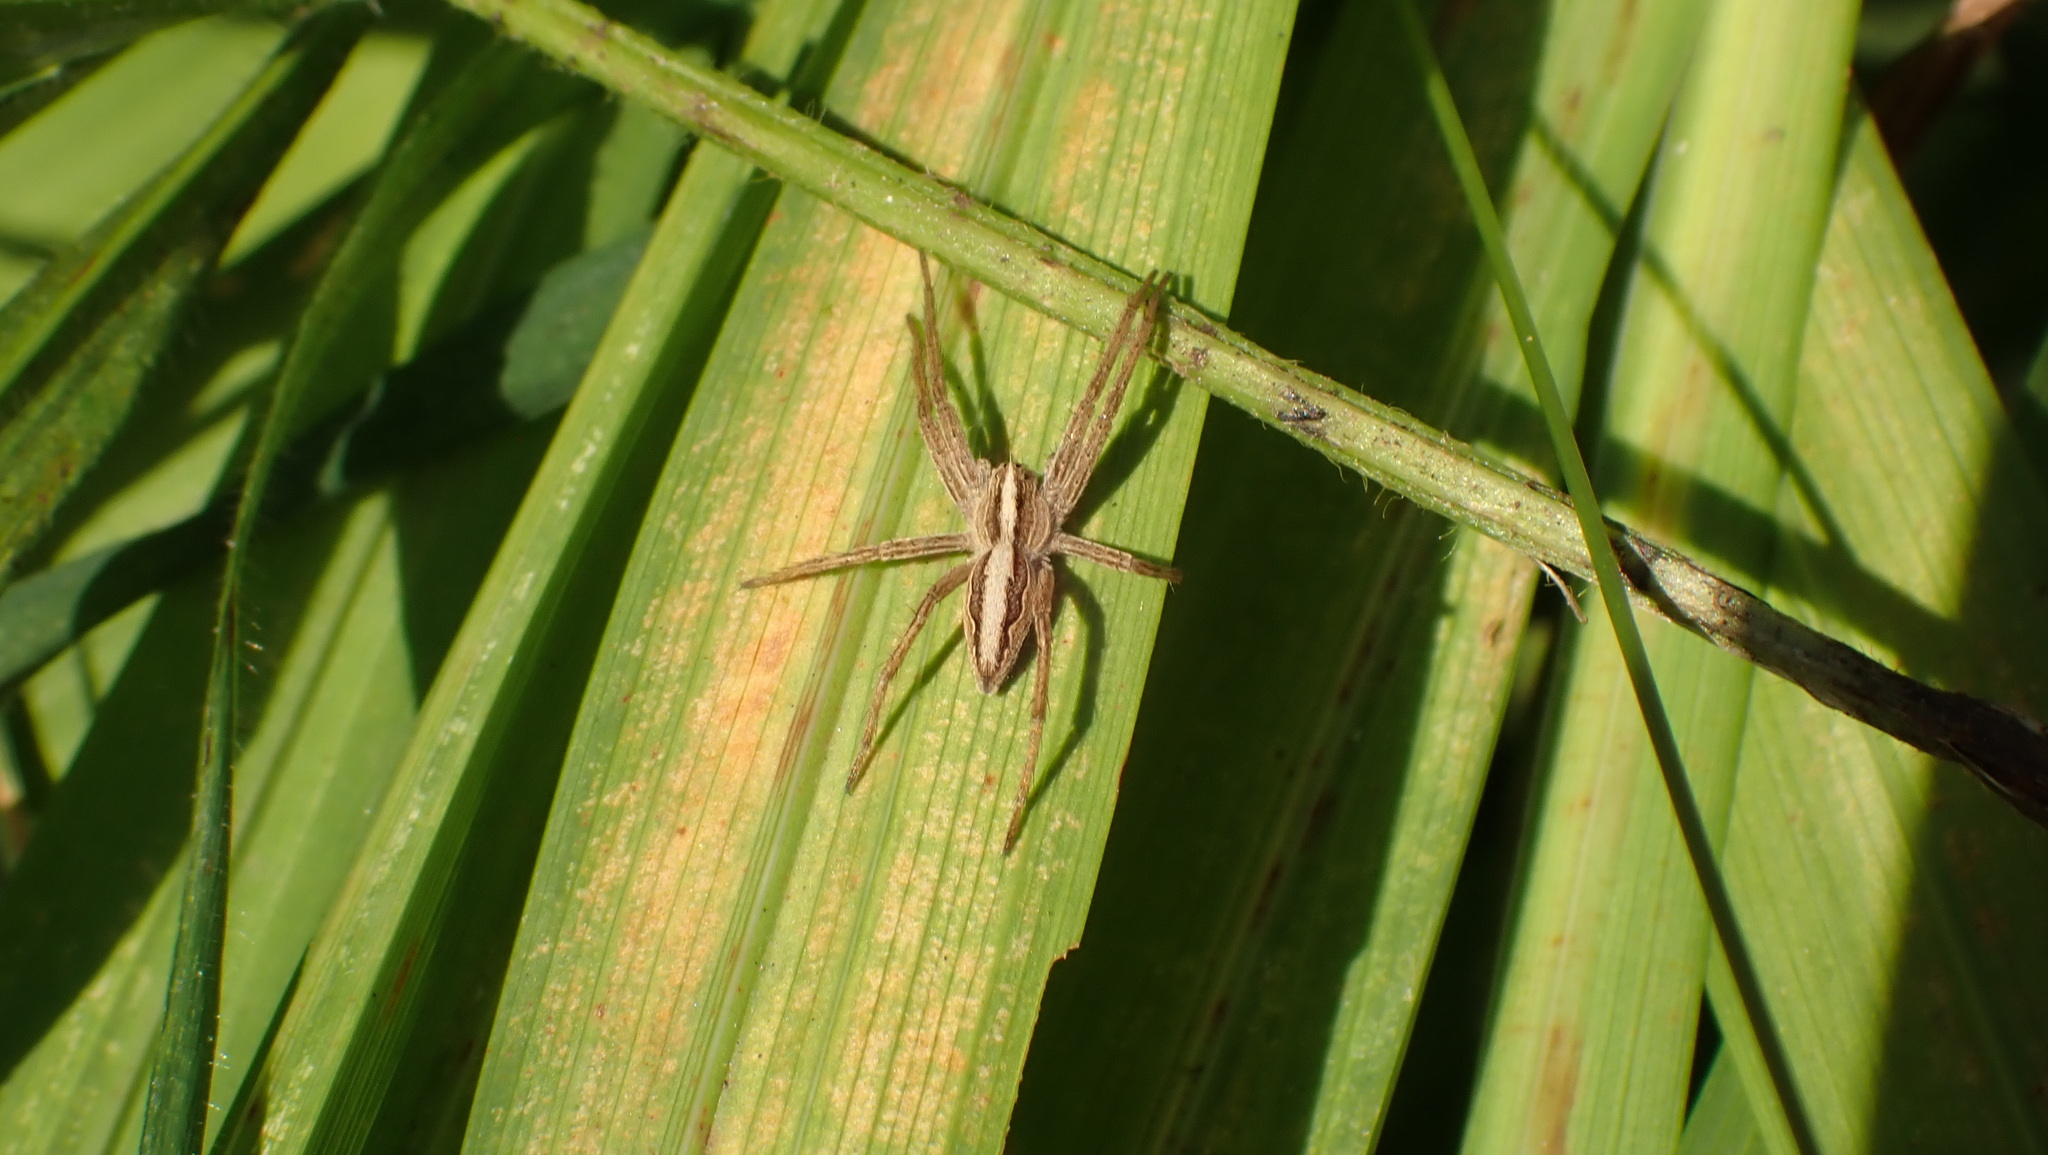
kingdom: Animalia
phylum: Arthropoda
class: Arachnida
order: Araneae
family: Pisauridae
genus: Pisaura
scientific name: Pisaura mirabilis
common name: Tent spider
